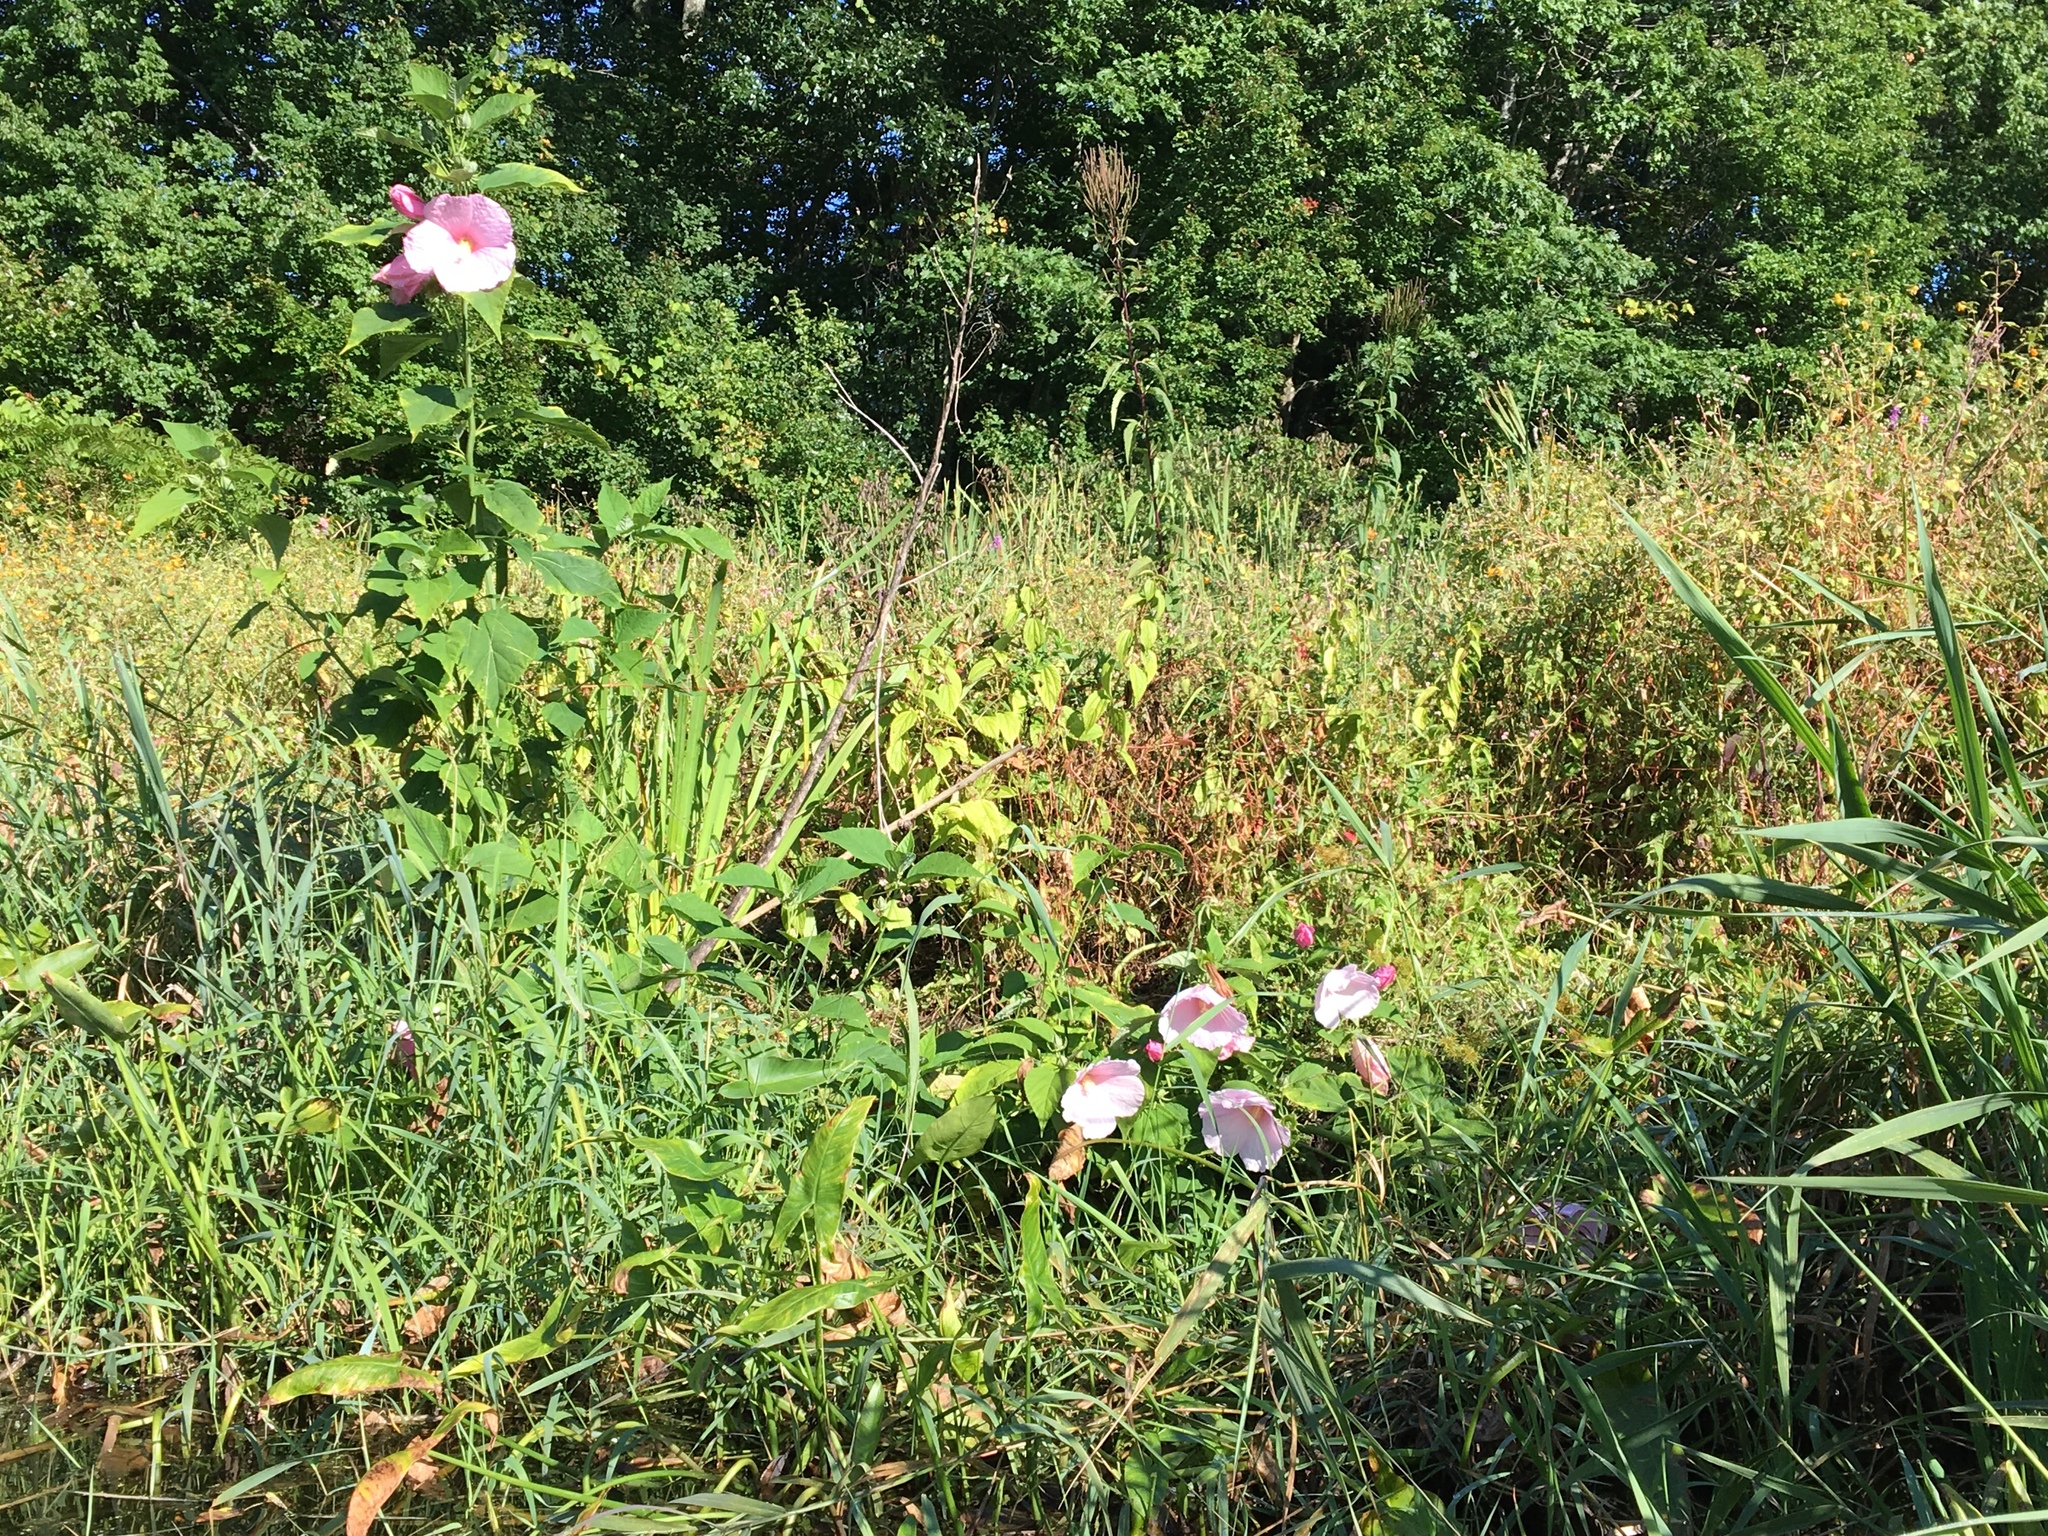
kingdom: Plantae
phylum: Tracheophyta
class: Magnoliopsida
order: Malvales
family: Malvaceae
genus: Hibiscus
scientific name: Hibiscus moscheutos
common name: Common rose-mallow
